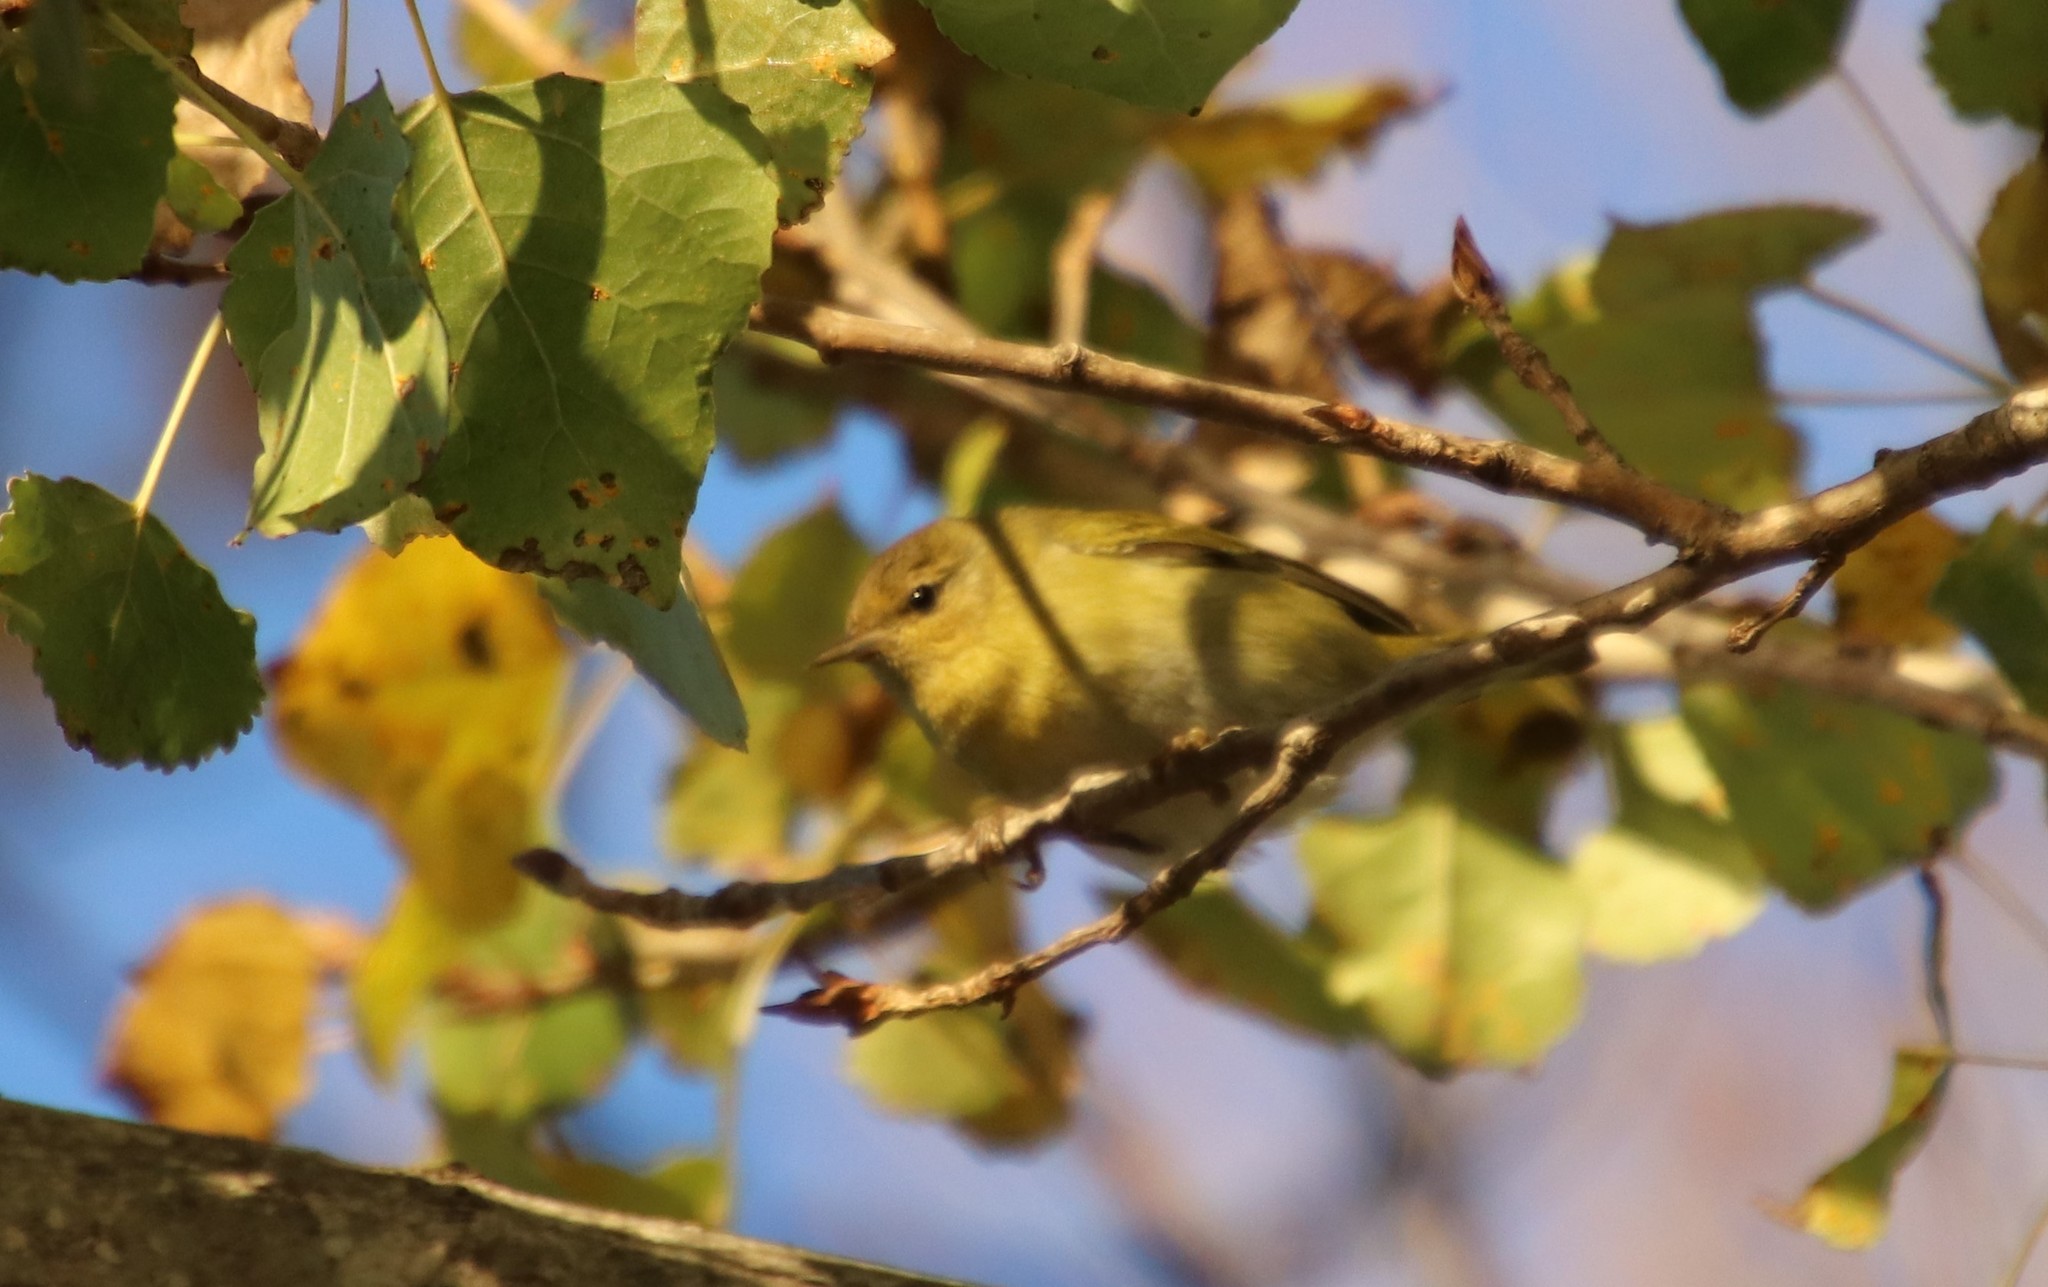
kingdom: Animalia
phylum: Chordata
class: Aves
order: Passeriformes
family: Parulidae
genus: Leiothlypis
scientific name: Leiothlypis peregrina
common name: Tennessee warbler
